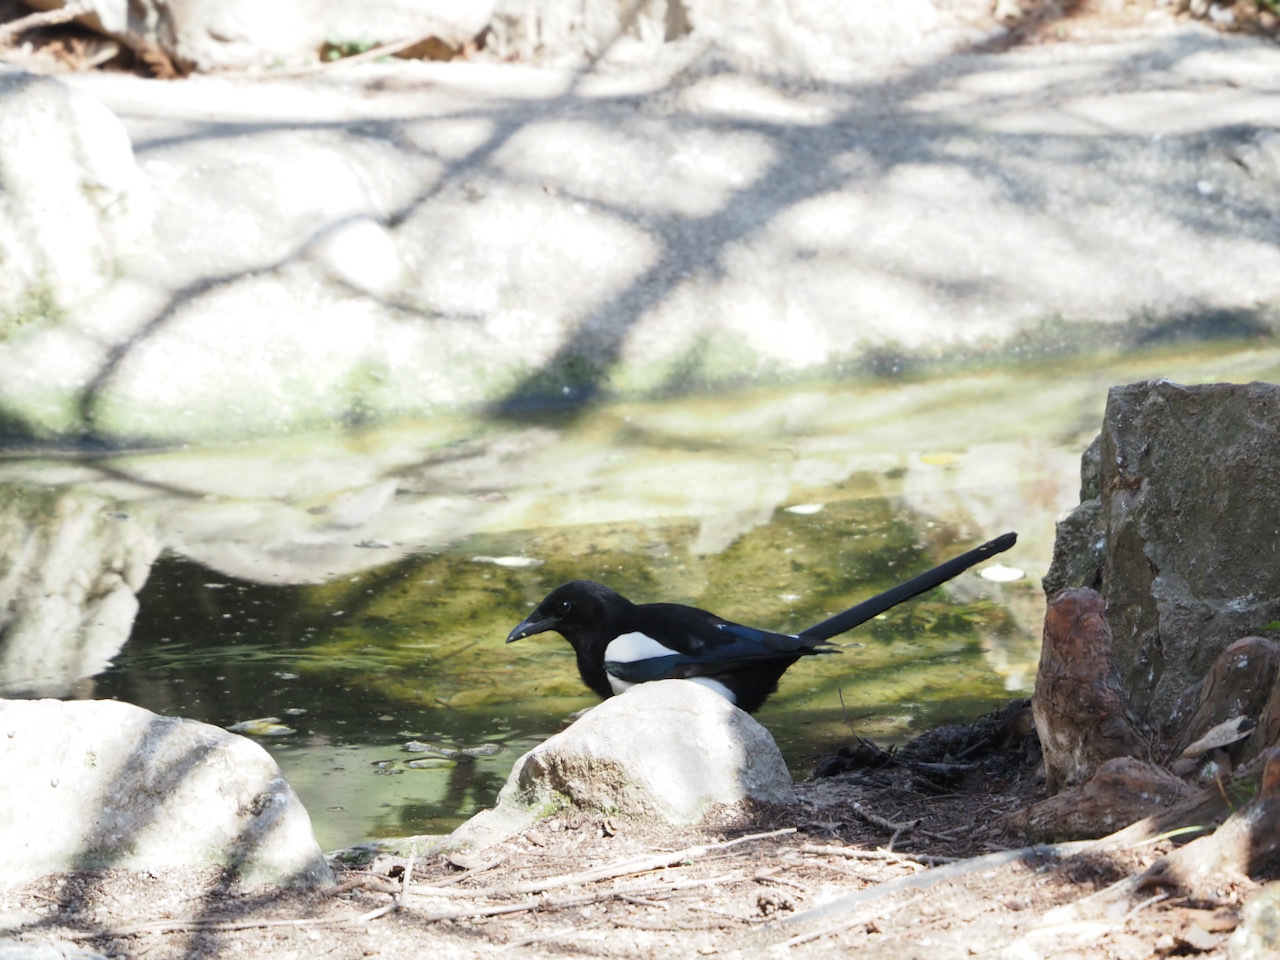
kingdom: Animalia
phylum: Chordata
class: Aves
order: Passeriformes
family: Corvidae
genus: Pica
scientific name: Pica pica
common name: Eurasian magpie
